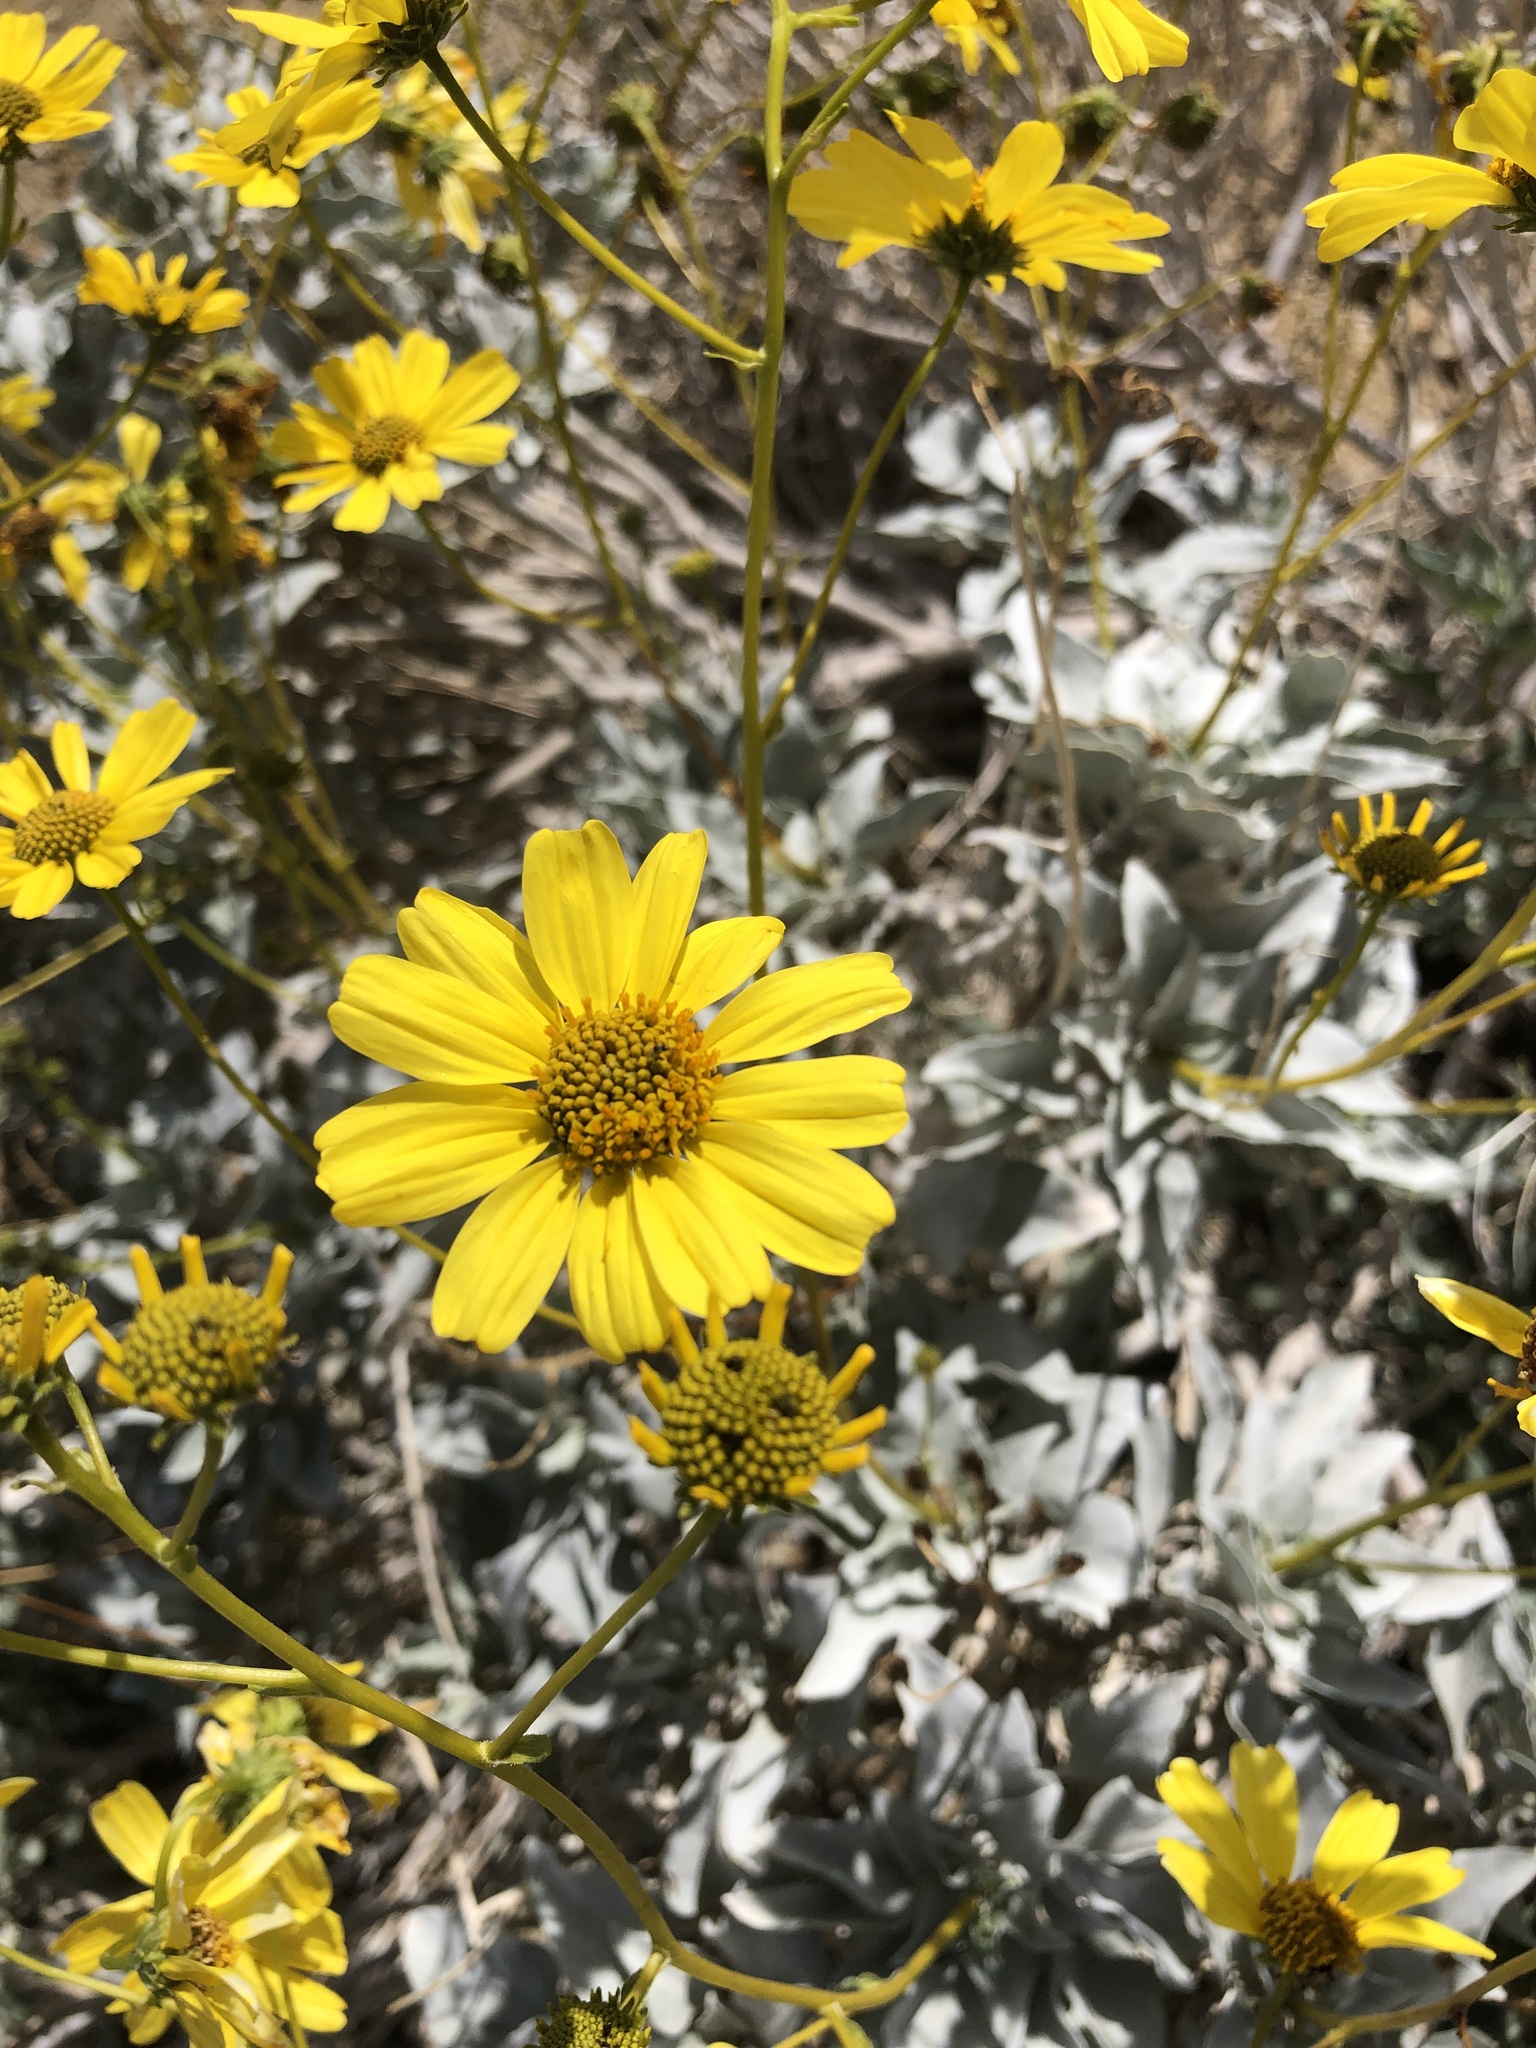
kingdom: Plantae
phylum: Tracheophyta
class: Magnoliopsida
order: Asterales
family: Asteraceae
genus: Encelia
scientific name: Encelia farinosa
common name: Brittlebush
